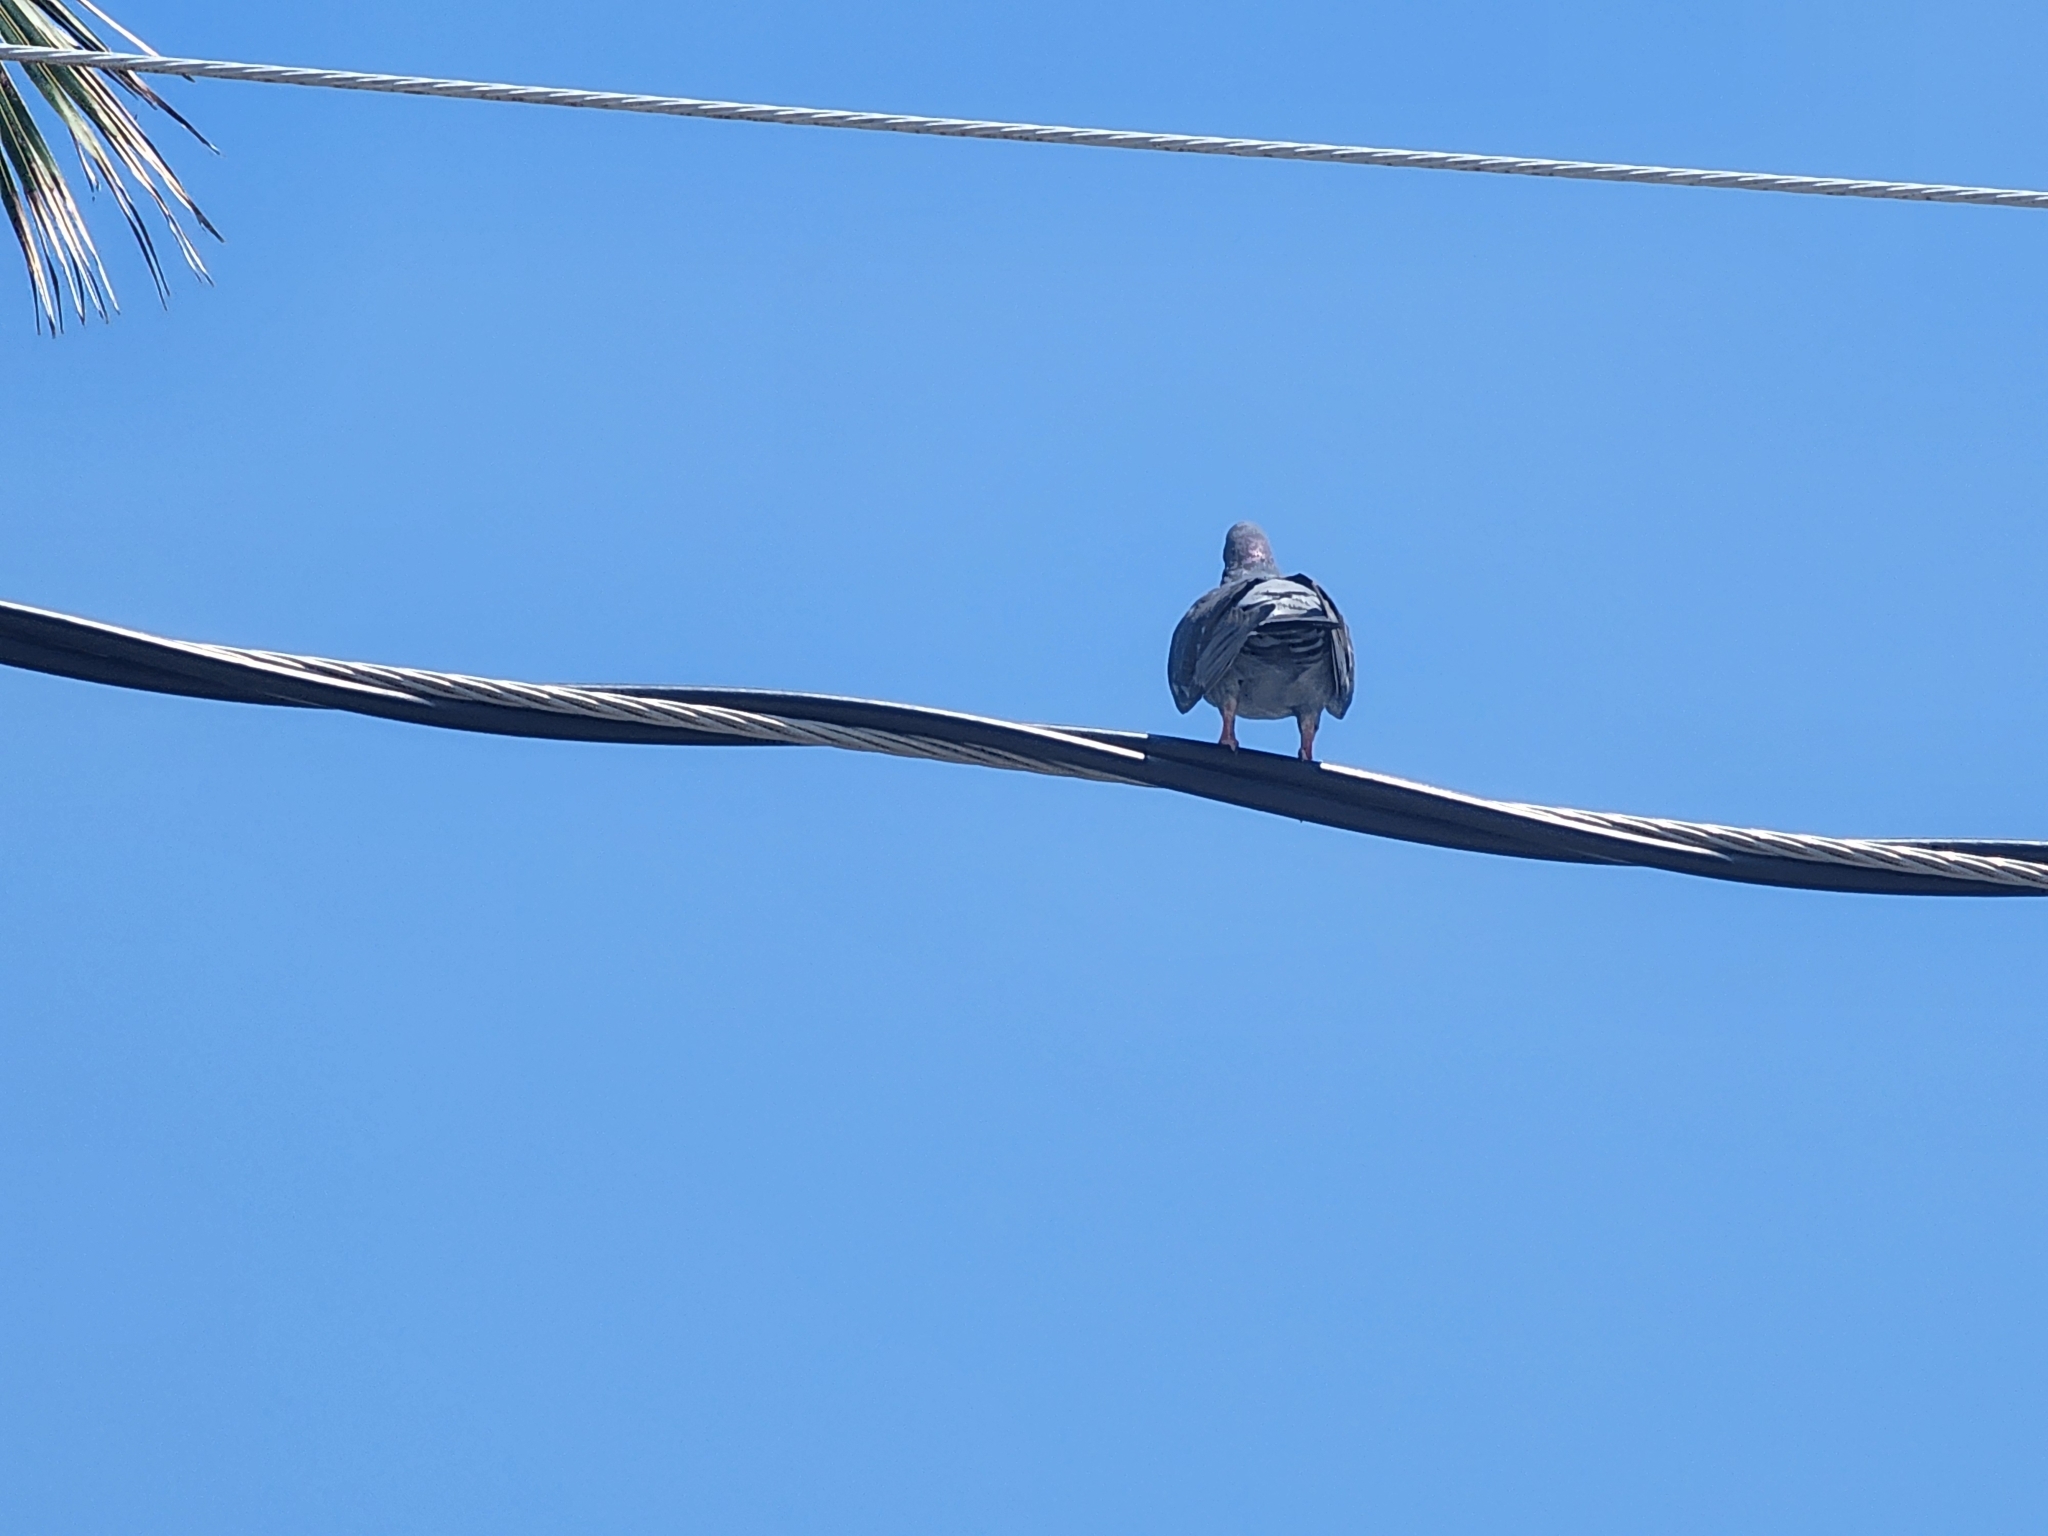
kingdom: Animalia
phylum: Chordata
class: Aves
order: Columbiformes
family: Columbidae
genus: Columba
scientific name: Columba livia
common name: Rock pigeon
